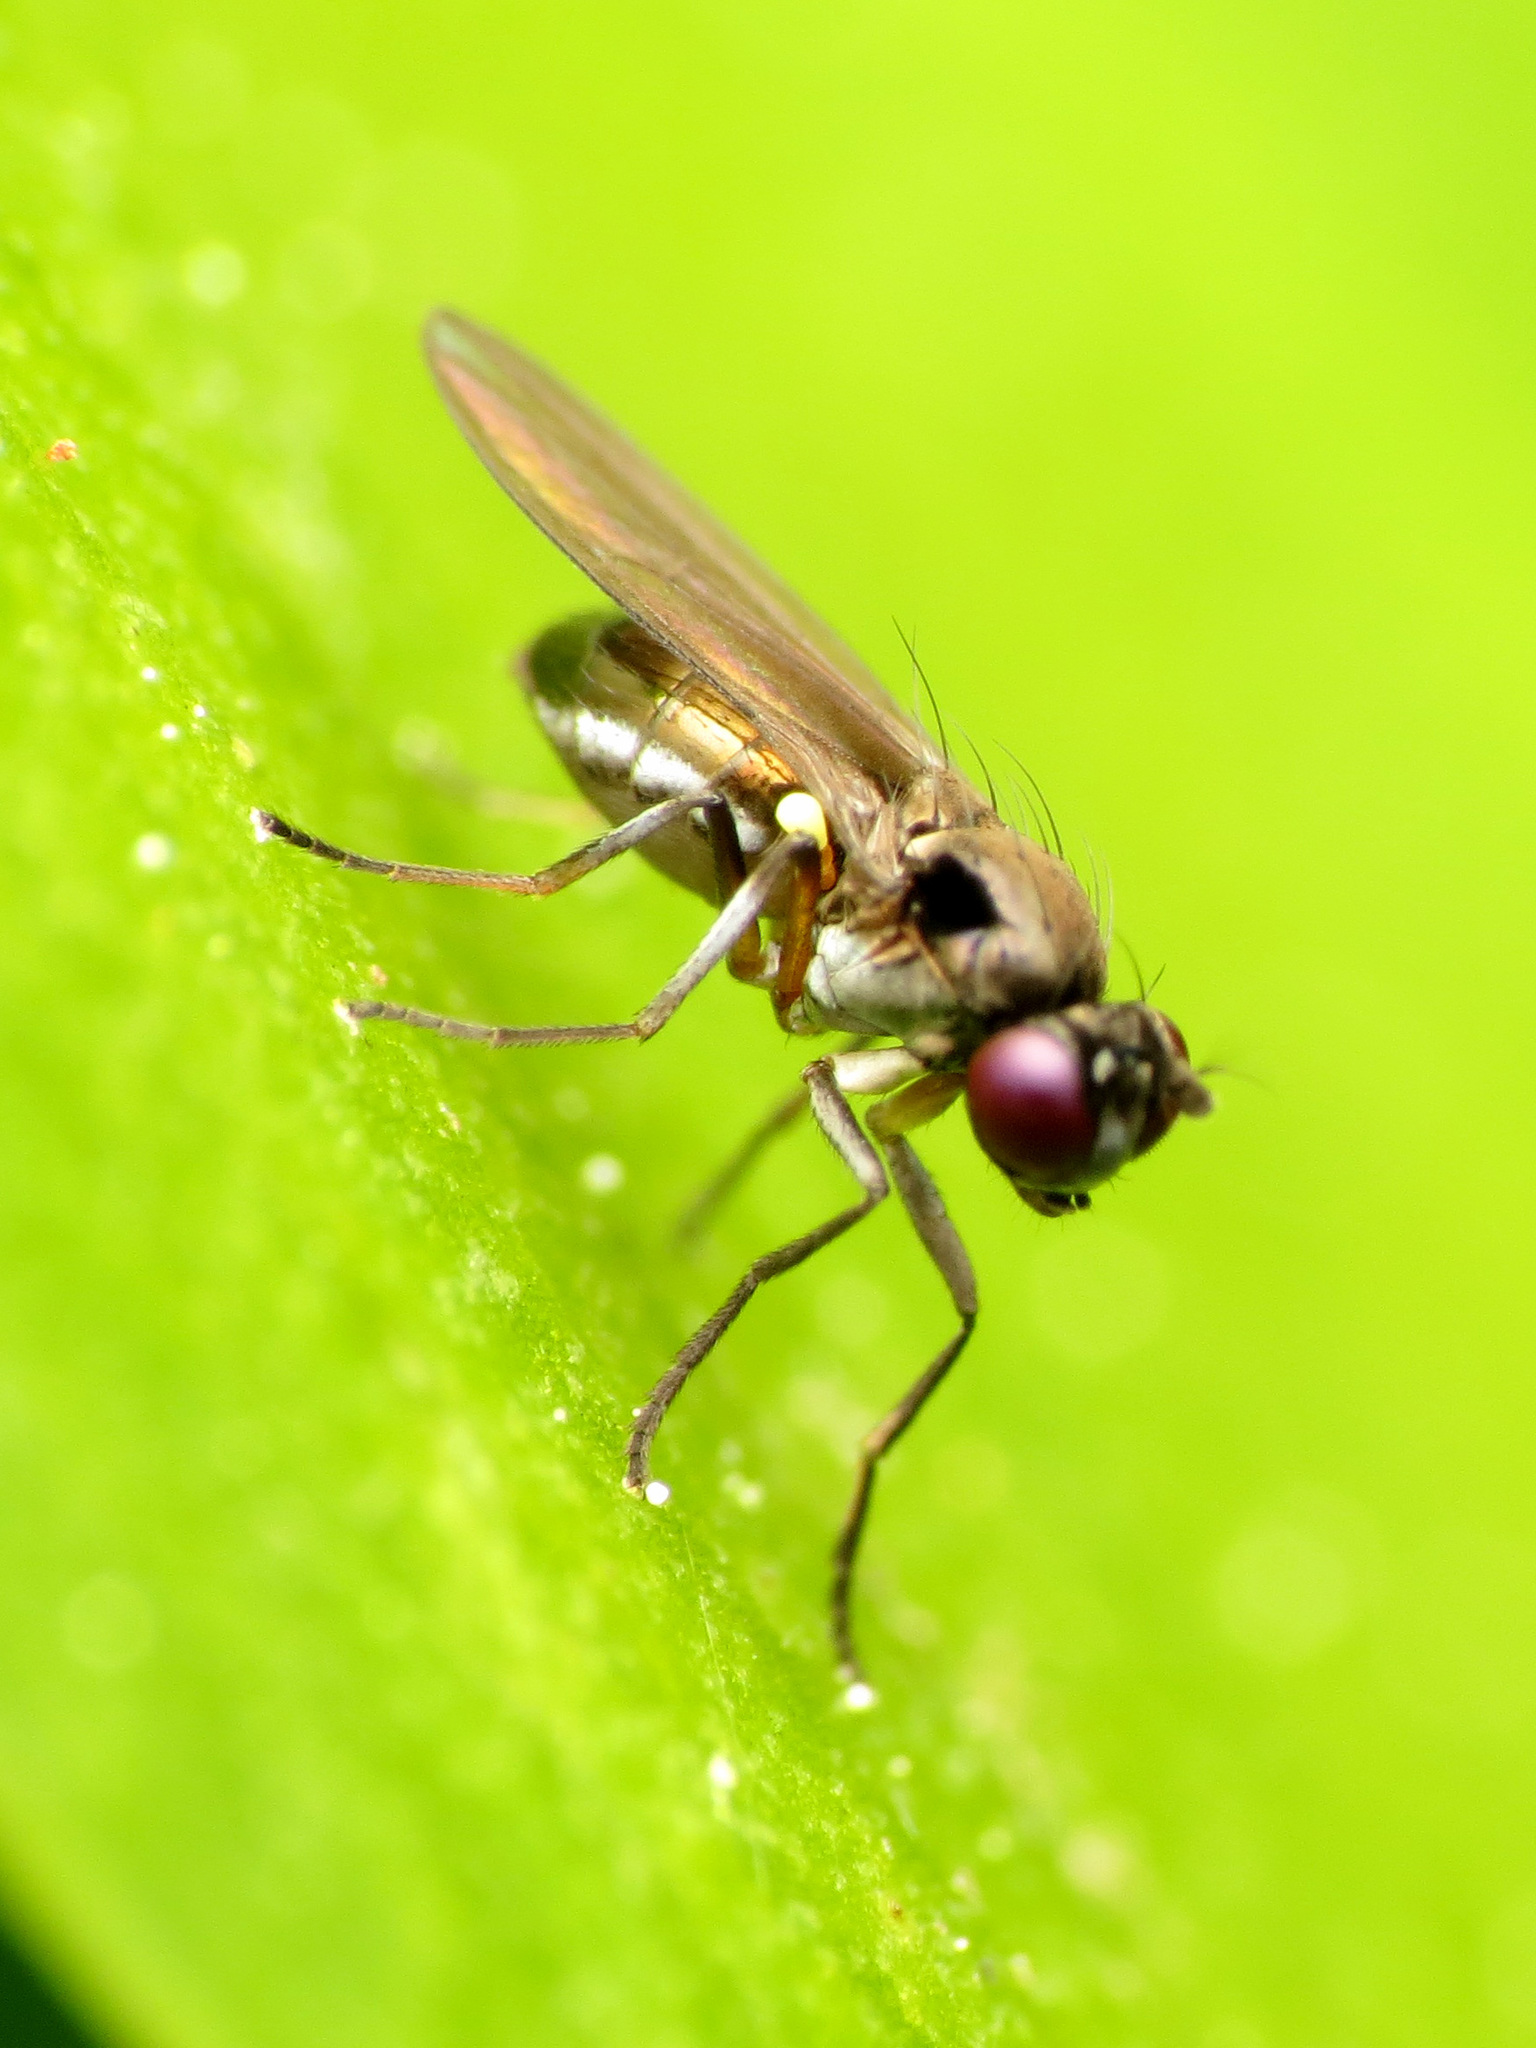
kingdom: Animalia
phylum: Arthropoda
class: Insecta
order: Diptera
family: Ephydridae
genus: Hydrellia
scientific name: Hydrellia tritici
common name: Shore fly
